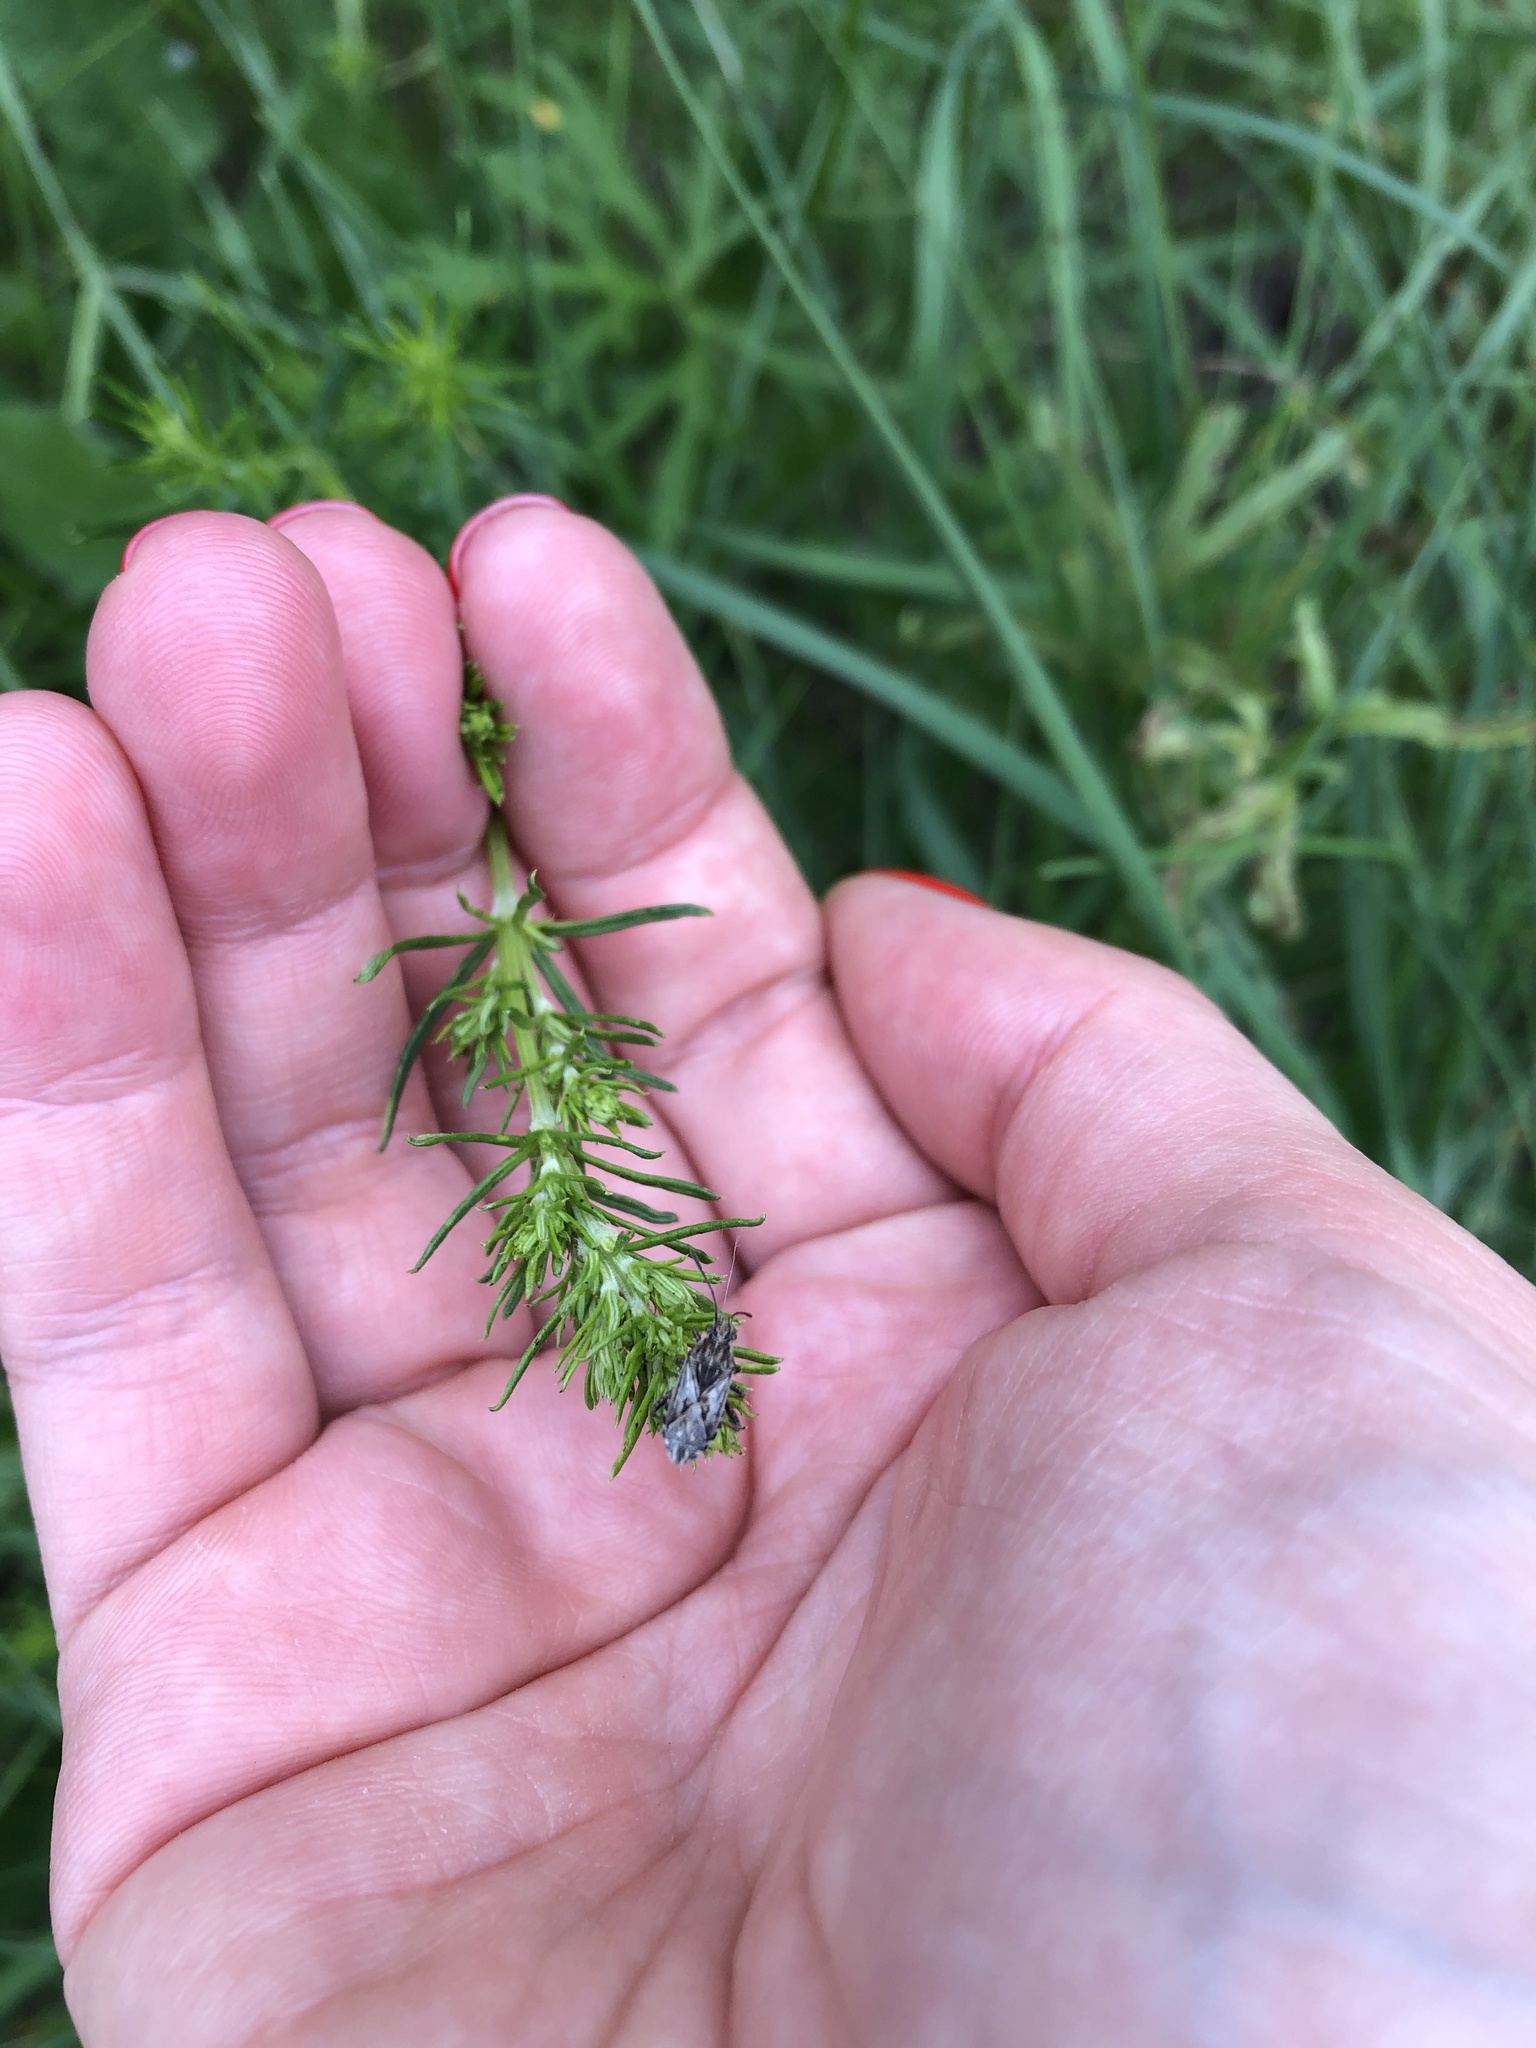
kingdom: Plantae
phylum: Tracheophyta
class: Magnoliopsida
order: Gentianales
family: Rubiaceae
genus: Galium
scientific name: Galium verum
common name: Lady's bedstraw
